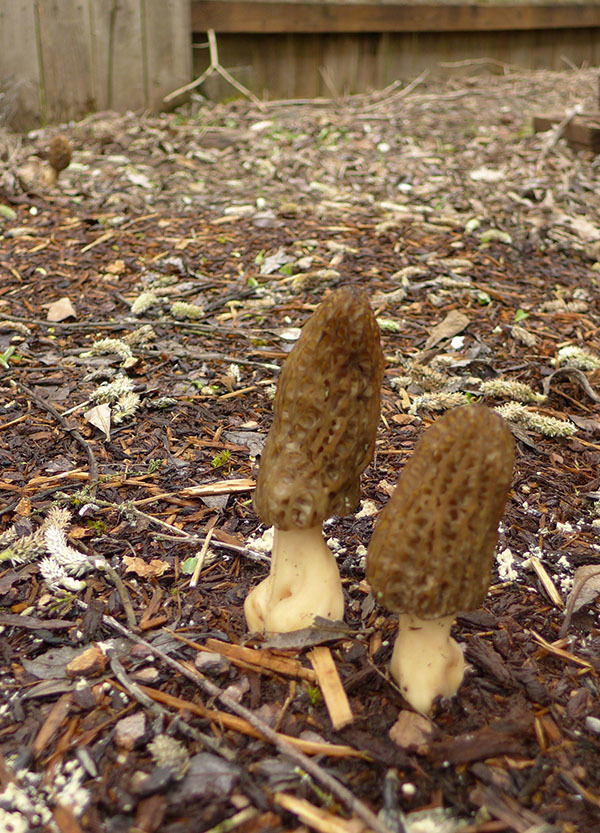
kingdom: Fungi
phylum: Ascomycota
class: Pezizomycetes
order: Pezizales
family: Morchellaceae
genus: Morchella
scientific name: Morchella importuna
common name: Landscaping black morel
